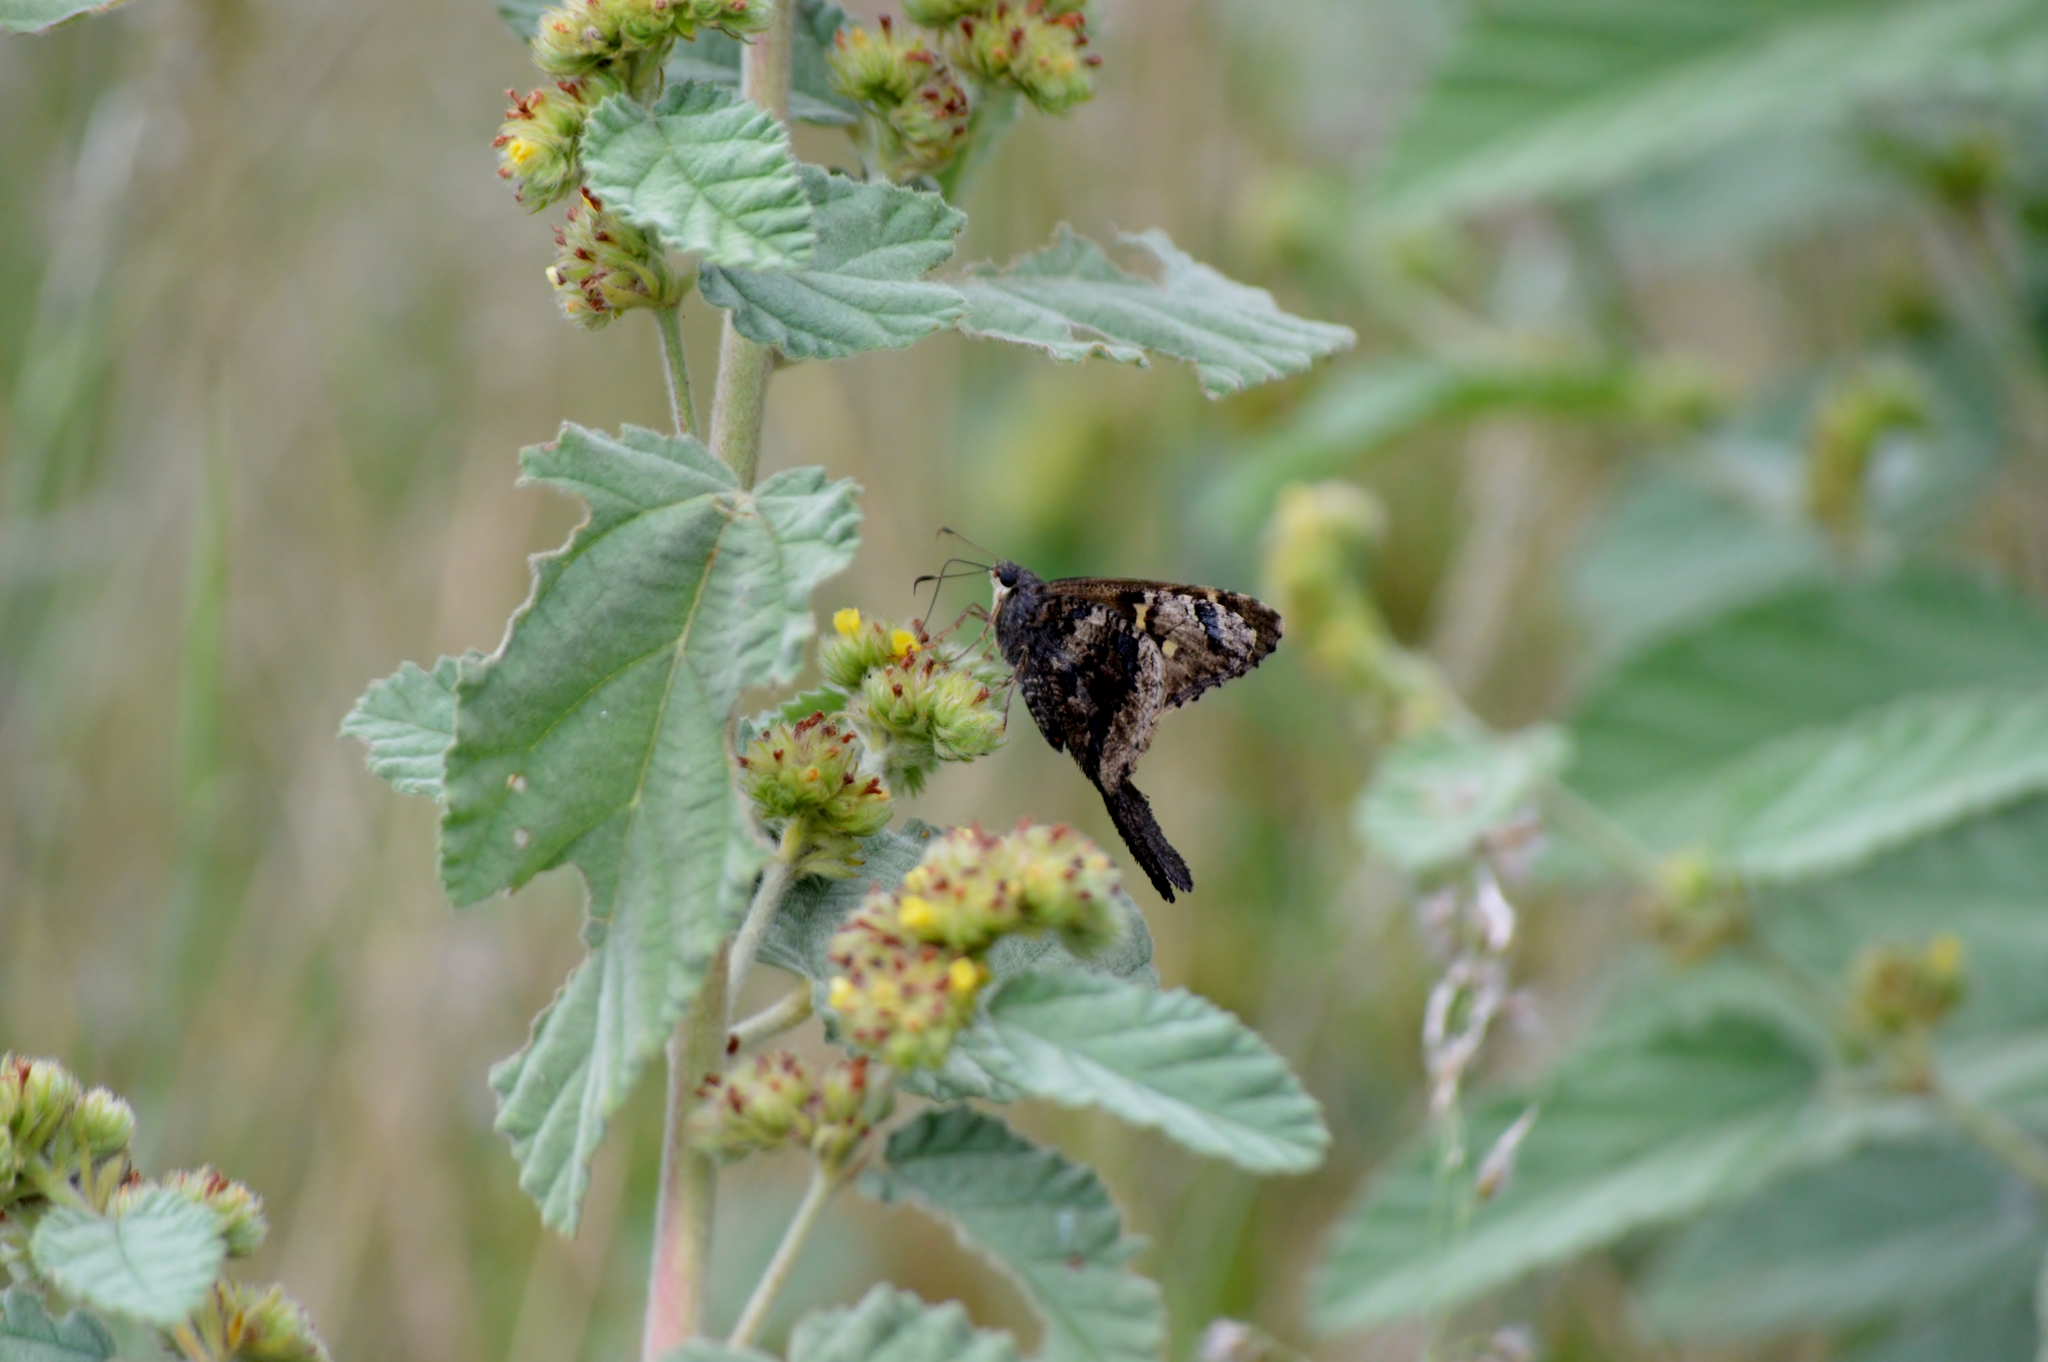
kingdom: Animalia
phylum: Arthropoda
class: Insecta
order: Lepidoptera
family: Hesperiidae
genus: Typhedanus
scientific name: Typhedanus undulatus
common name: Mottled longtail
